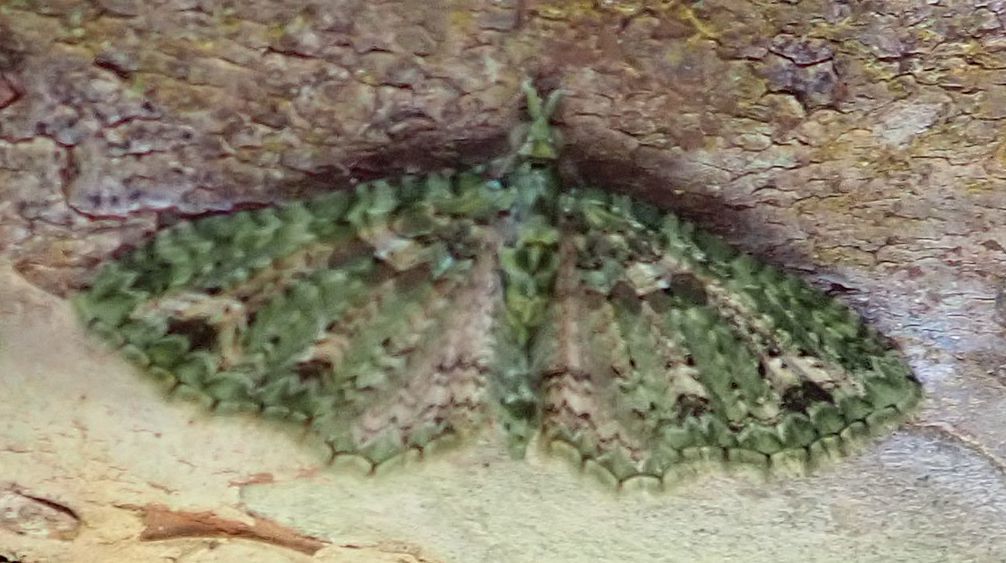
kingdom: Animalia
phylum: Arthropoda
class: Insecta
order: Lepidoptera
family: Geometridae
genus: Pasiphila
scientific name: Pasiphila muscosata
